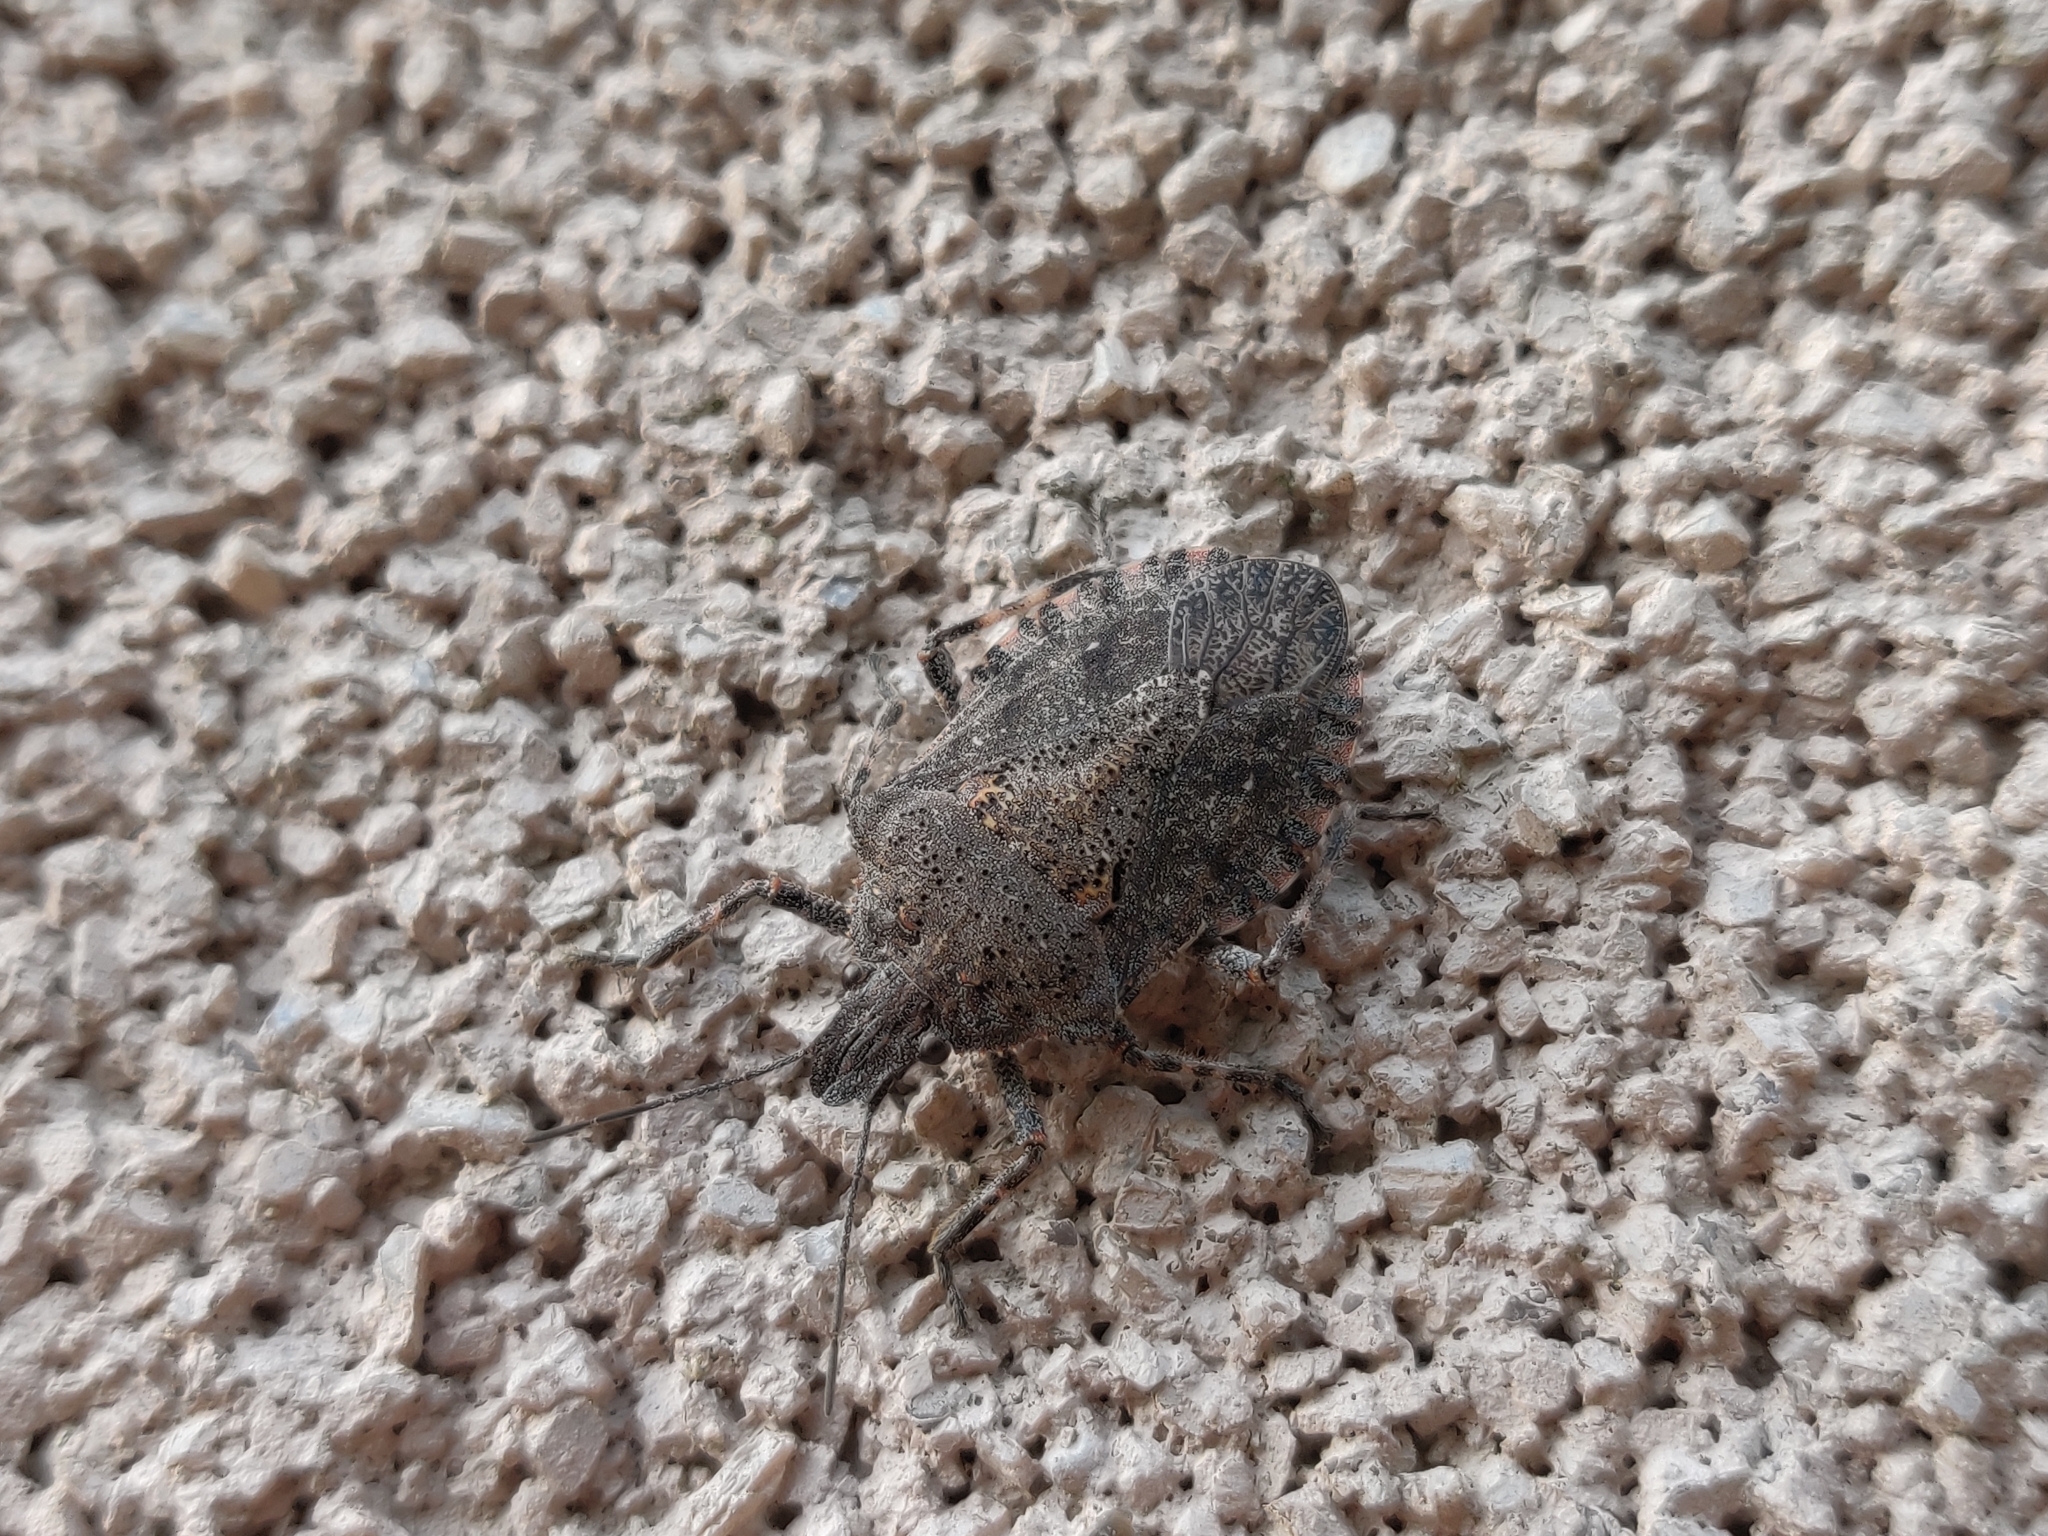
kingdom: Animalia
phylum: Arthropoda
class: Insecta
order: Hemiptera
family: Pentatomidae
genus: Brochymena
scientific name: Brochymena quadripustulata
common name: Four-humped stink bug
